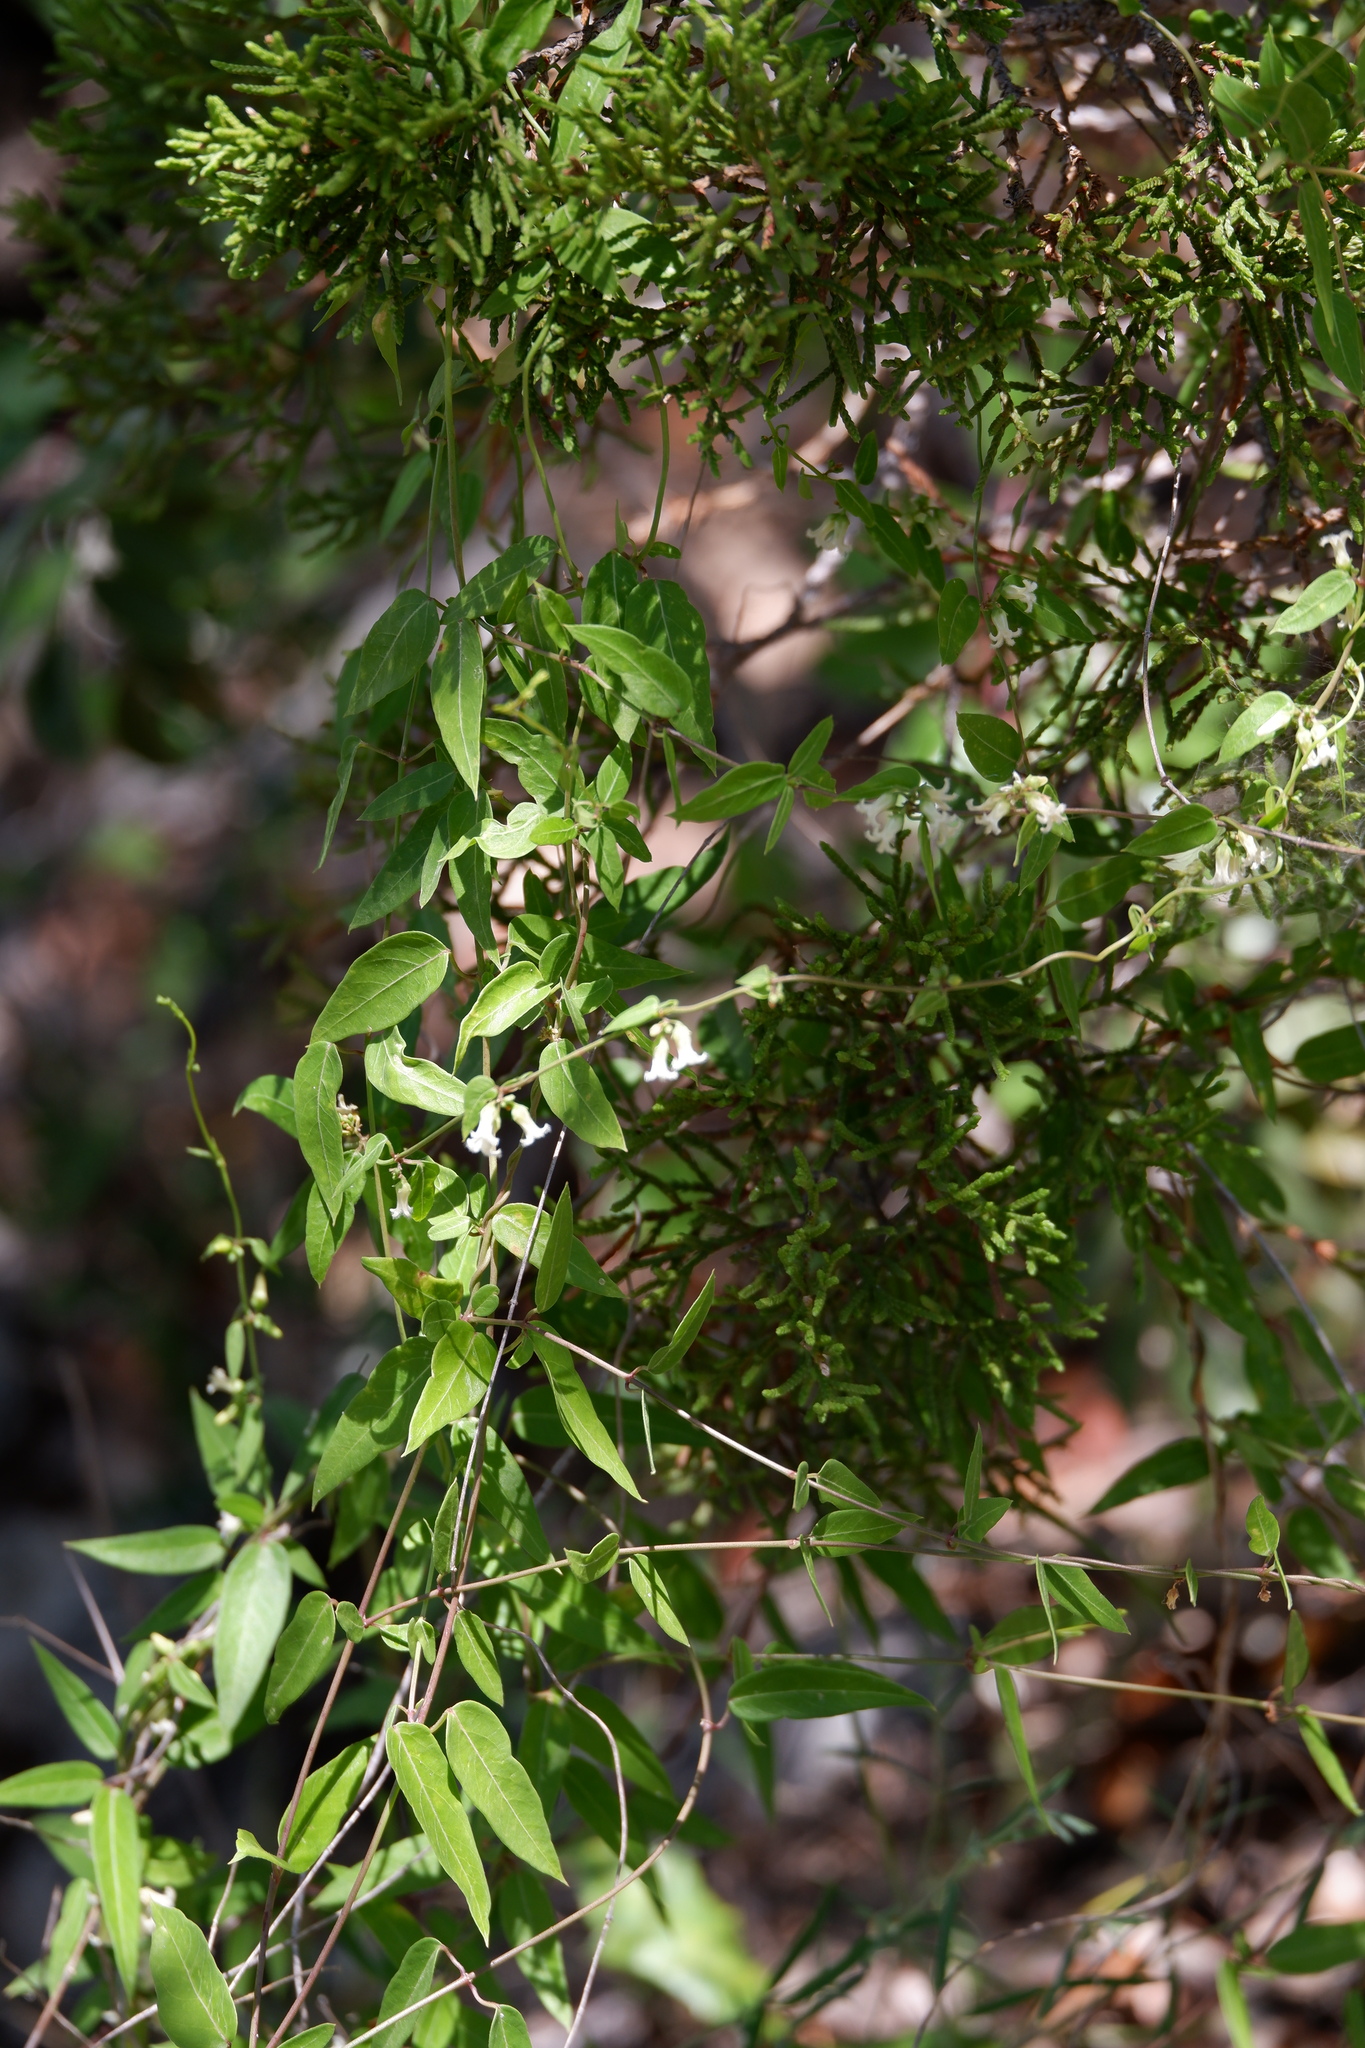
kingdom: Plantae
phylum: Tracheophyta
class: Magnoliopsida
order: Gentianales
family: Apocynaceae
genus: Metastelma
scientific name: Metastelma barbigerum
